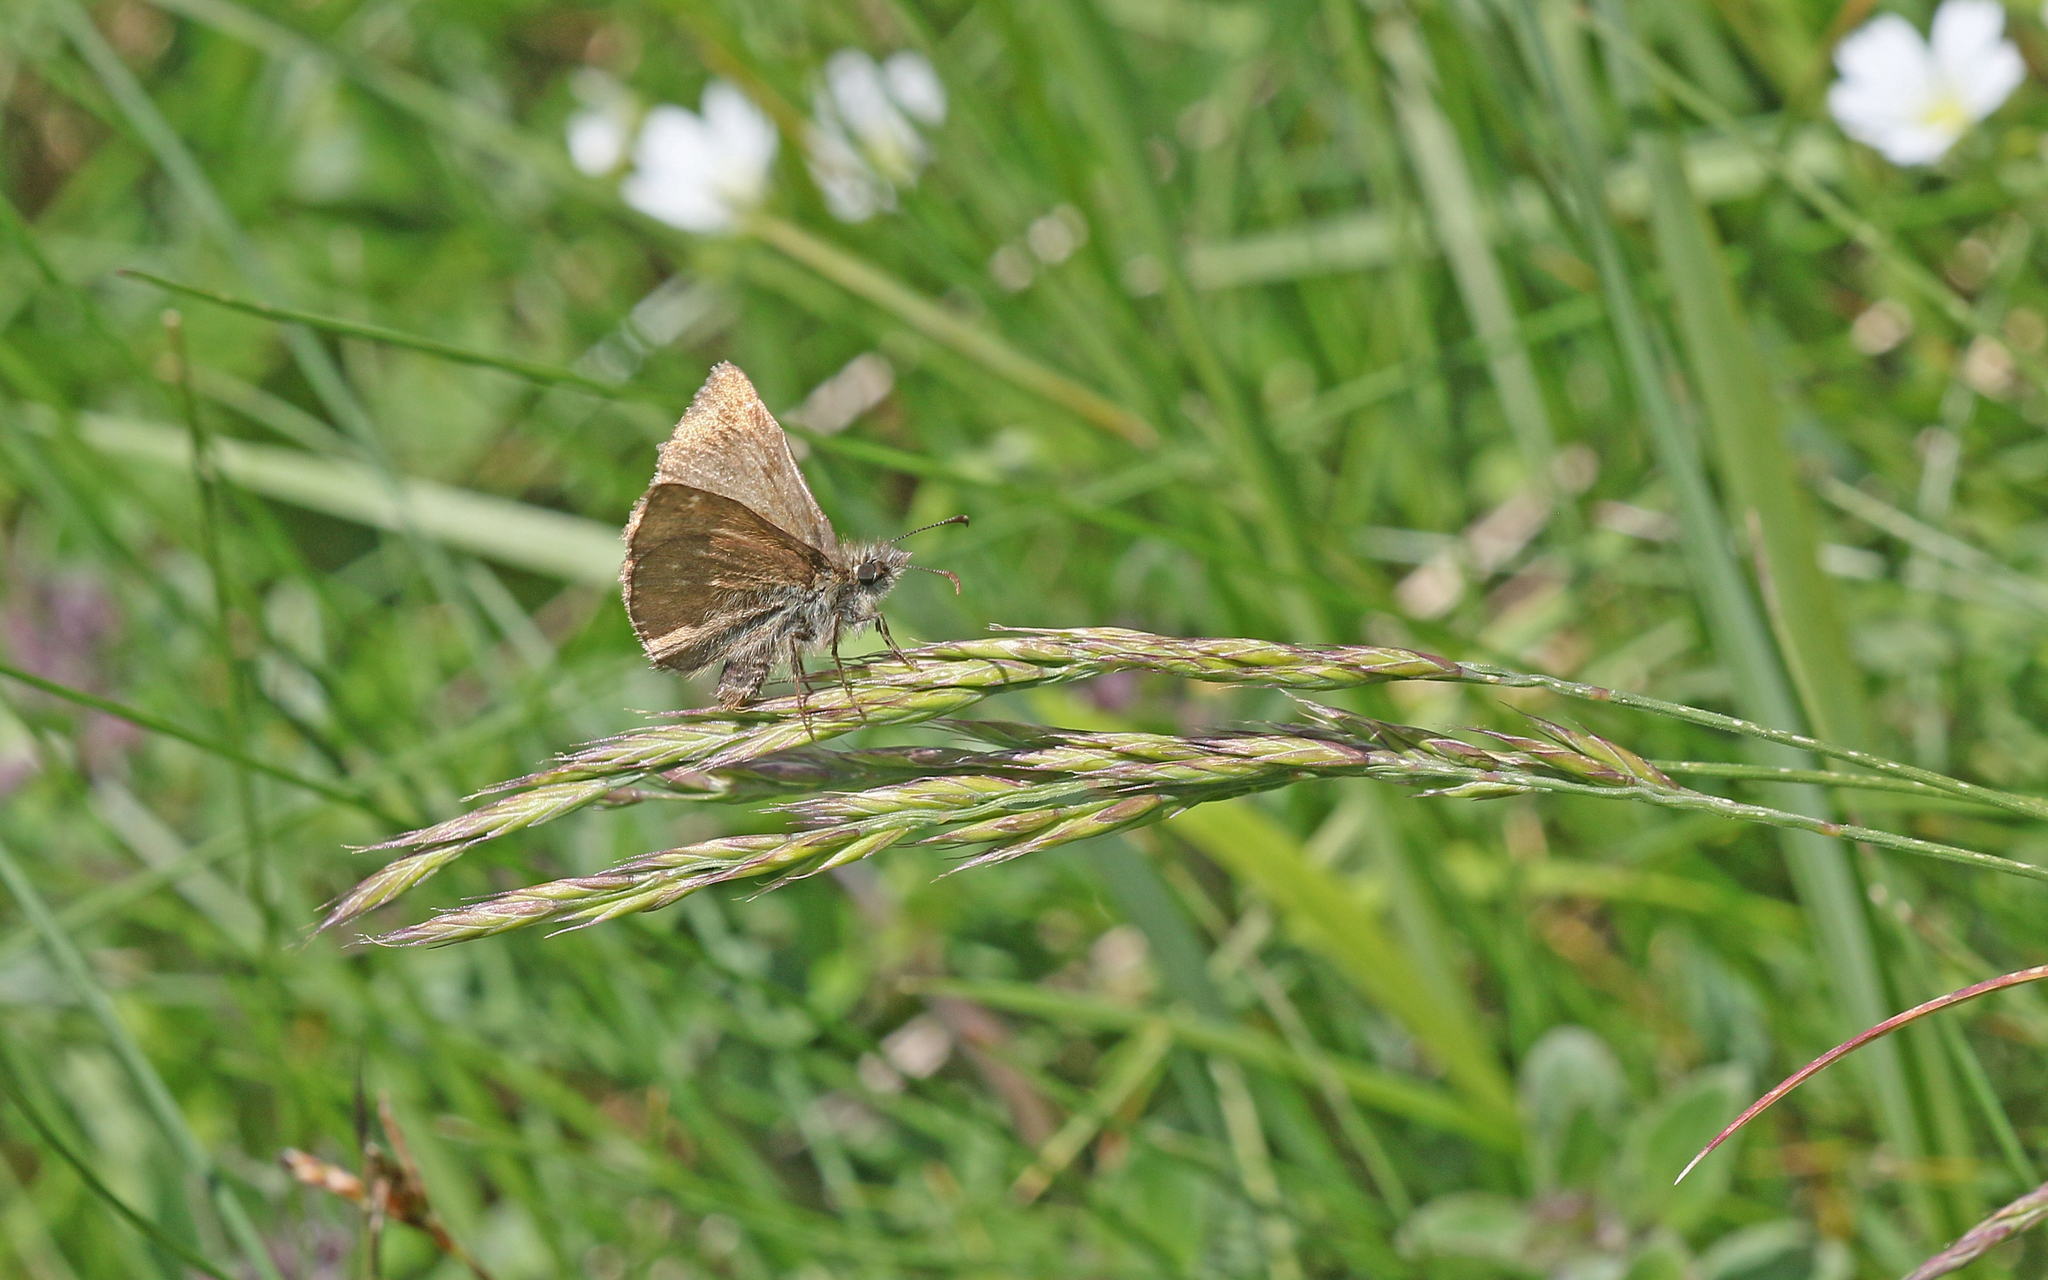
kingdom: Animalia
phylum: Arthropoda
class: Insecta
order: Lepidoptera
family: Hesperiidae
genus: Erynnis
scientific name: Erynnis tages
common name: Dingy skipper
